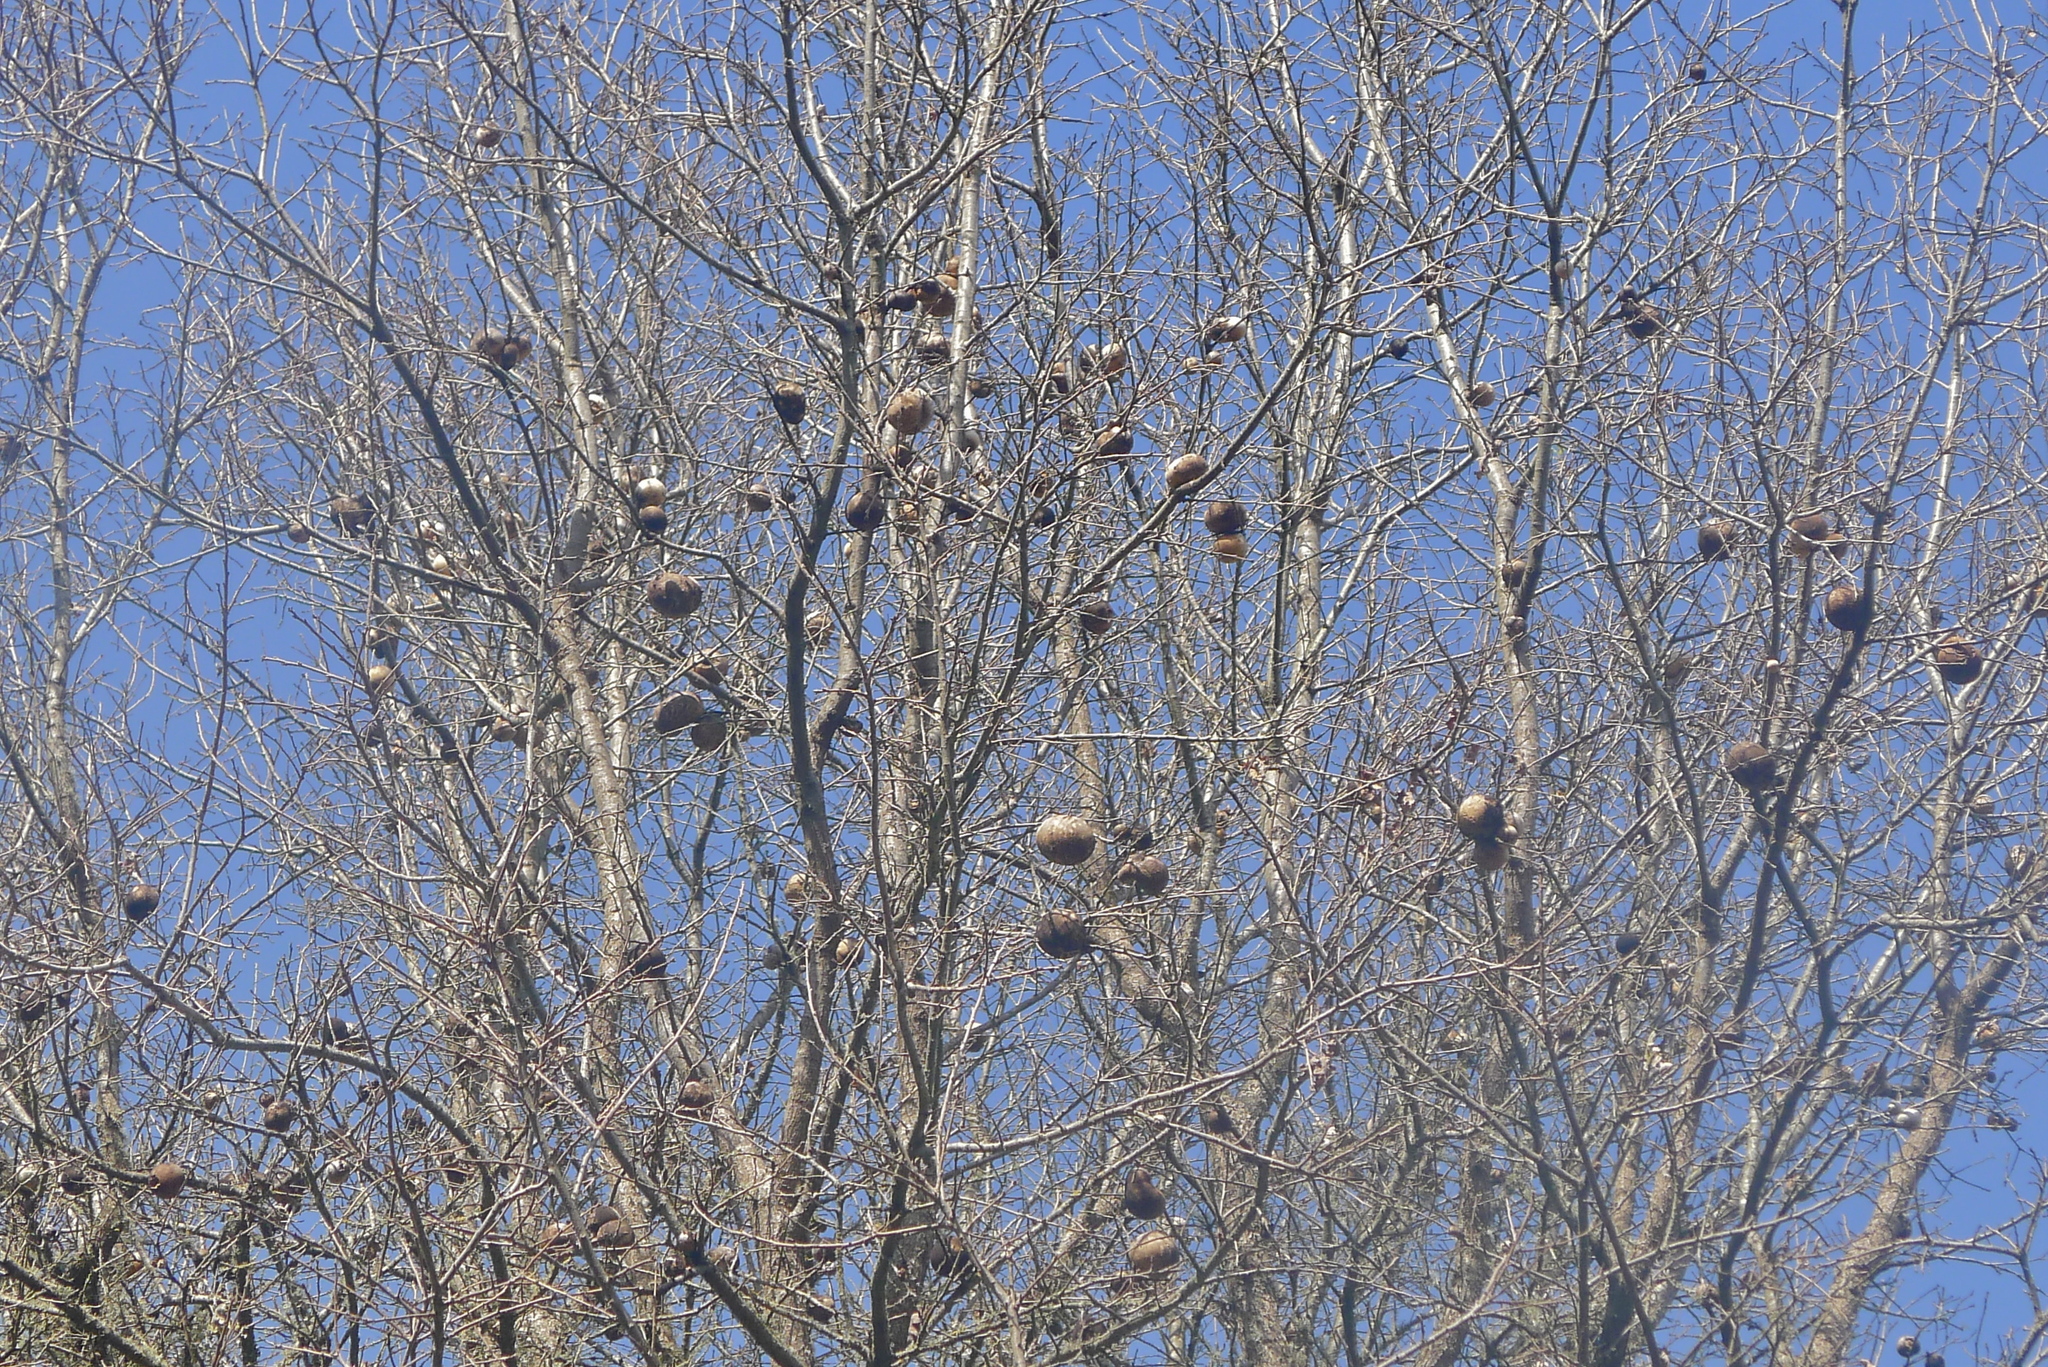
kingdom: Animalia
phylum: Arthropoda
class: Insecta
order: Hymenoptera
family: Cynipidae
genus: Andricus
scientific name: Andricus quercuscalifornicus
